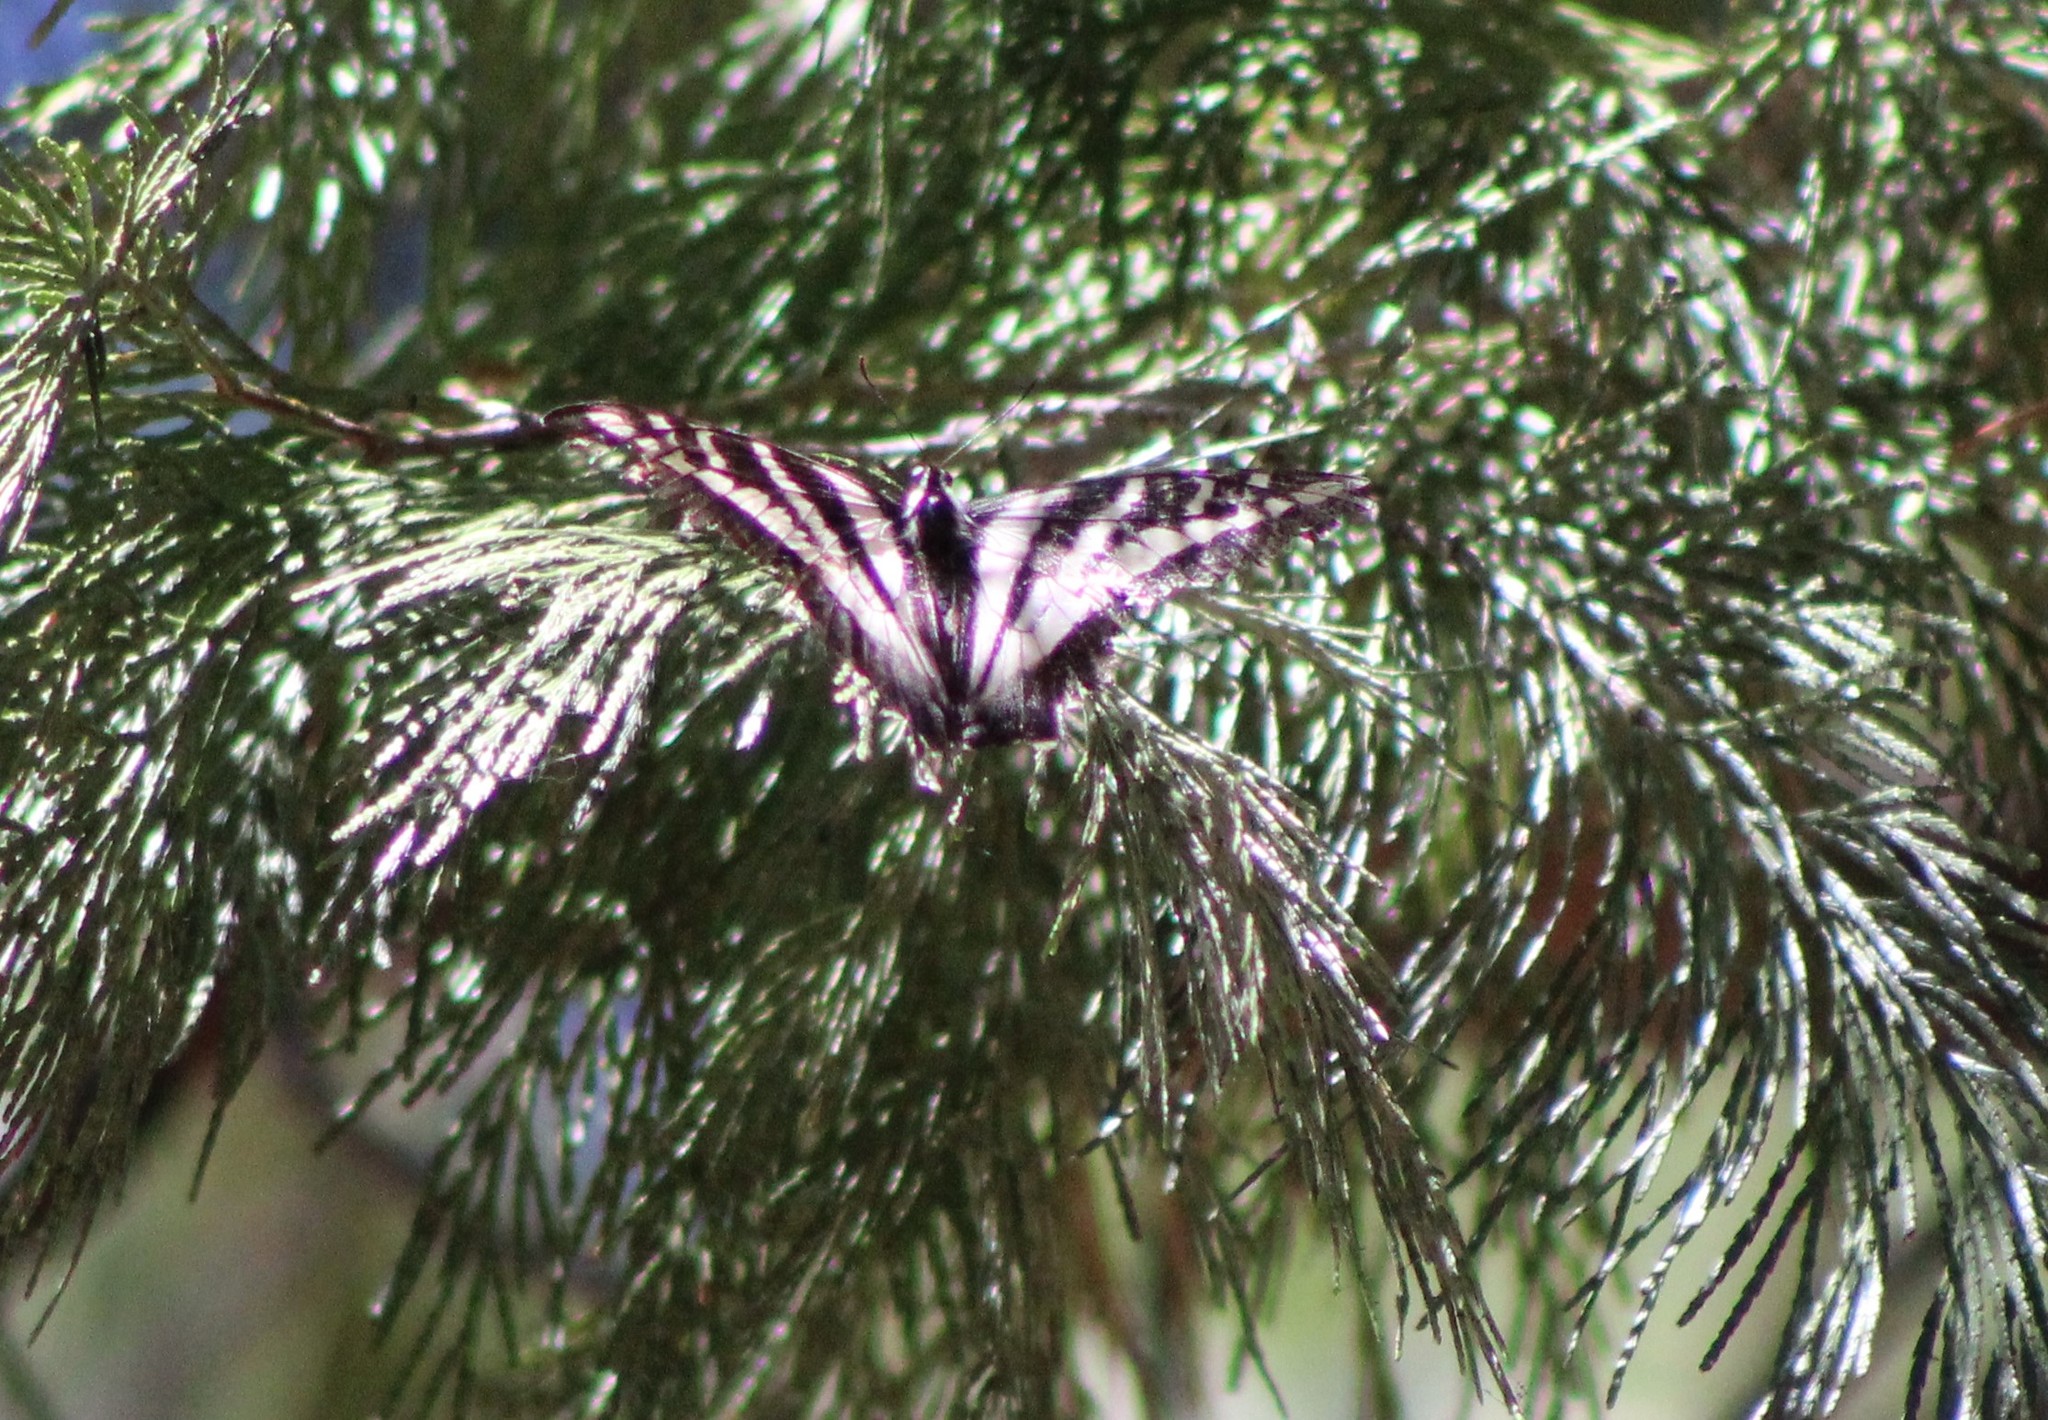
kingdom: Animalia
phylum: Arthropoda
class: Insecta
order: Lepidoptera
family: Papilionidae
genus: Papilio
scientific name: Papilio eurymedon
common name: Pale tiger swallowtail
